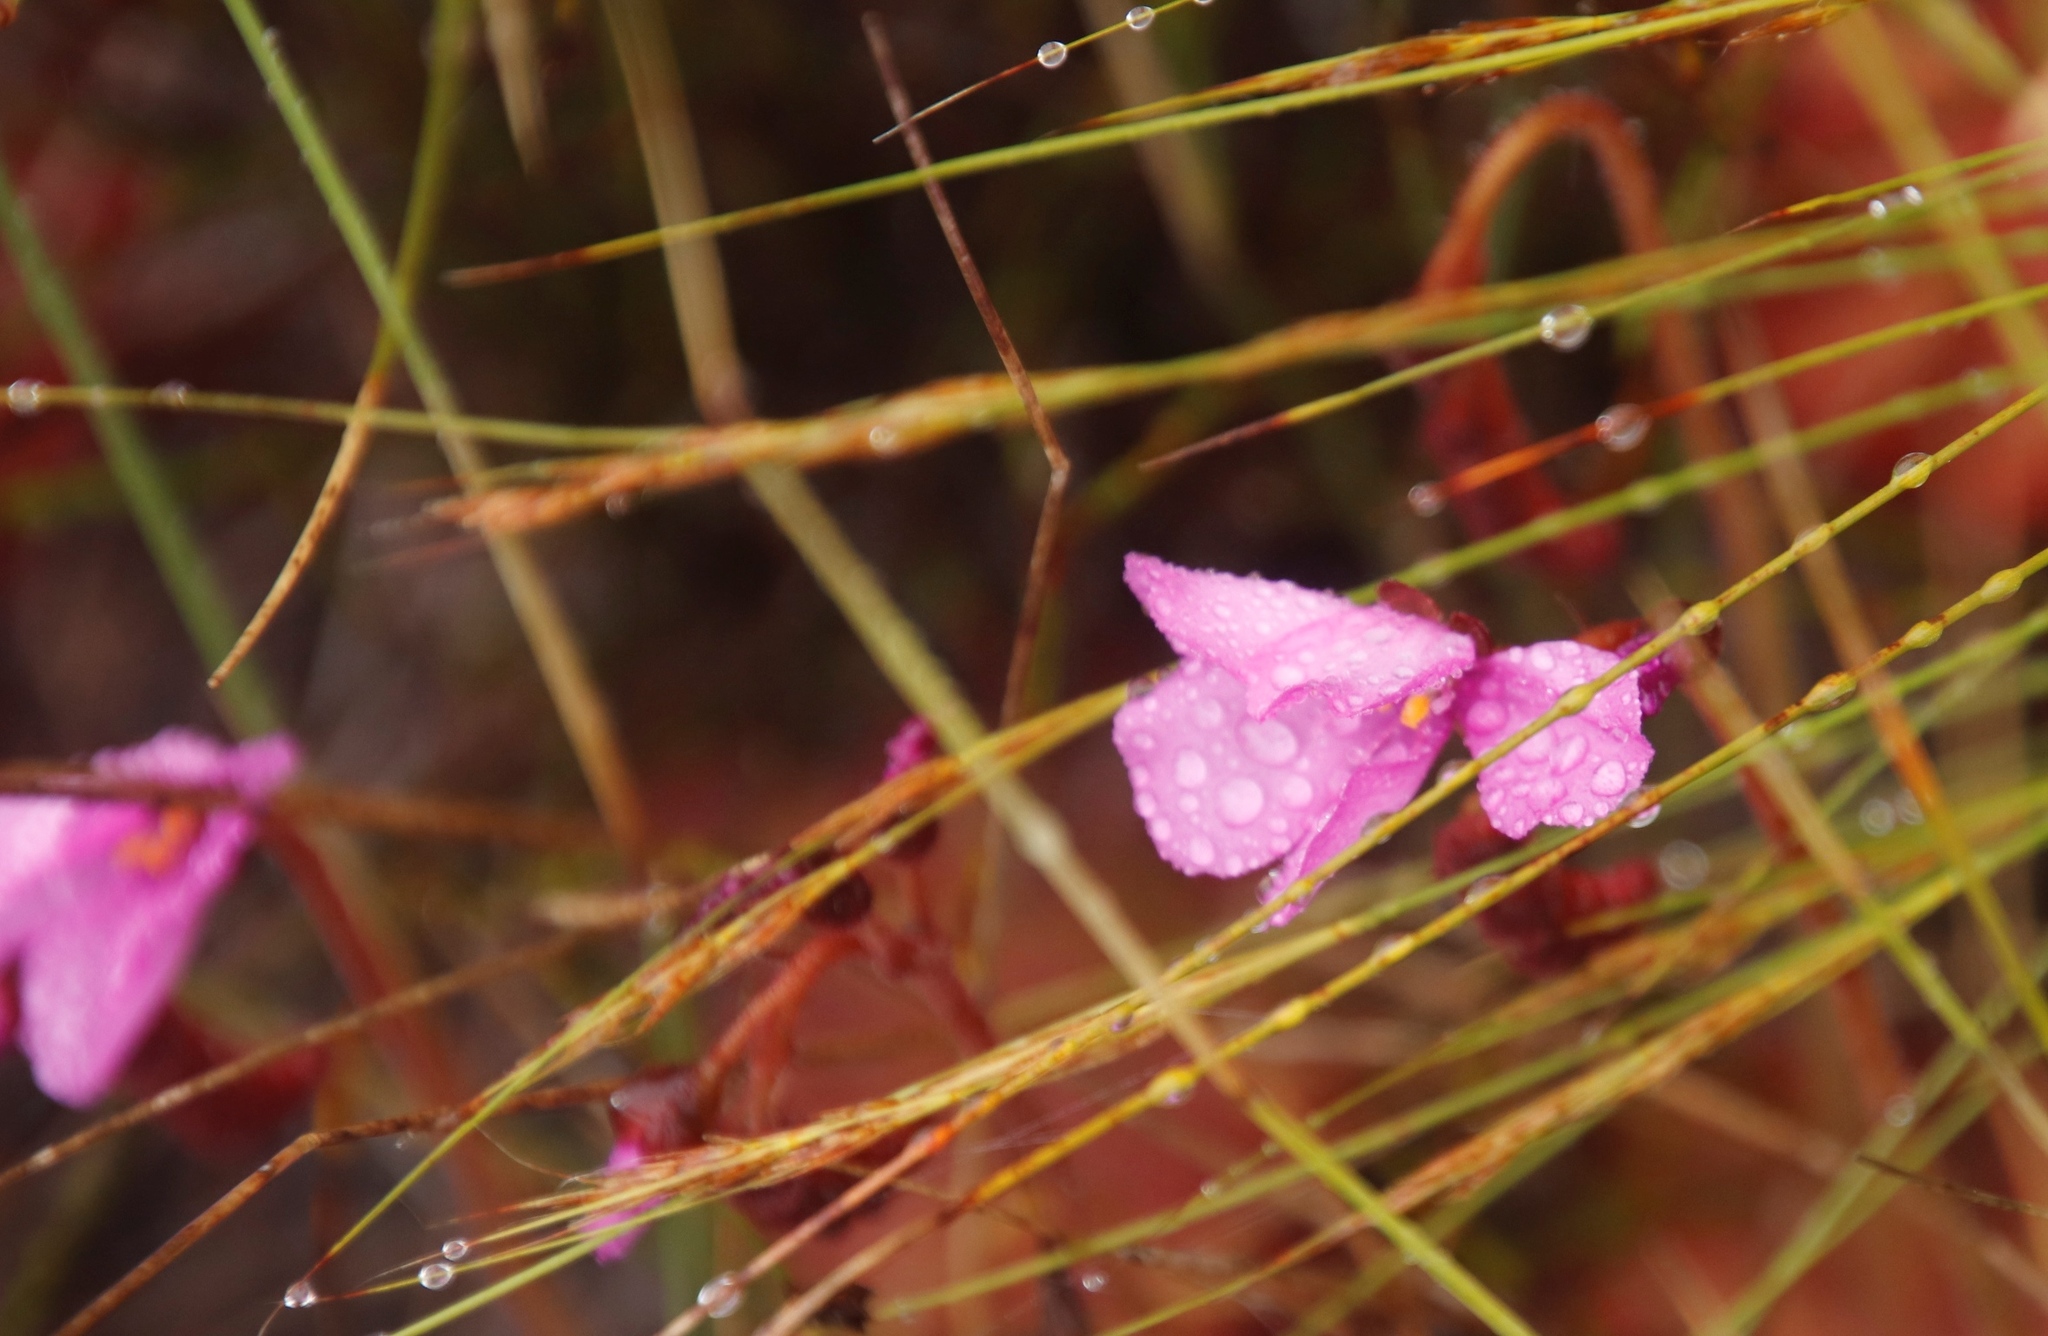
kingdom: Plantae
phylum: Tracheophyta
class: Magnoliopsida
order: Caryophyllales
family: Droseraceae
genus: Drosera
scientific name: Drosera cuneifolia
